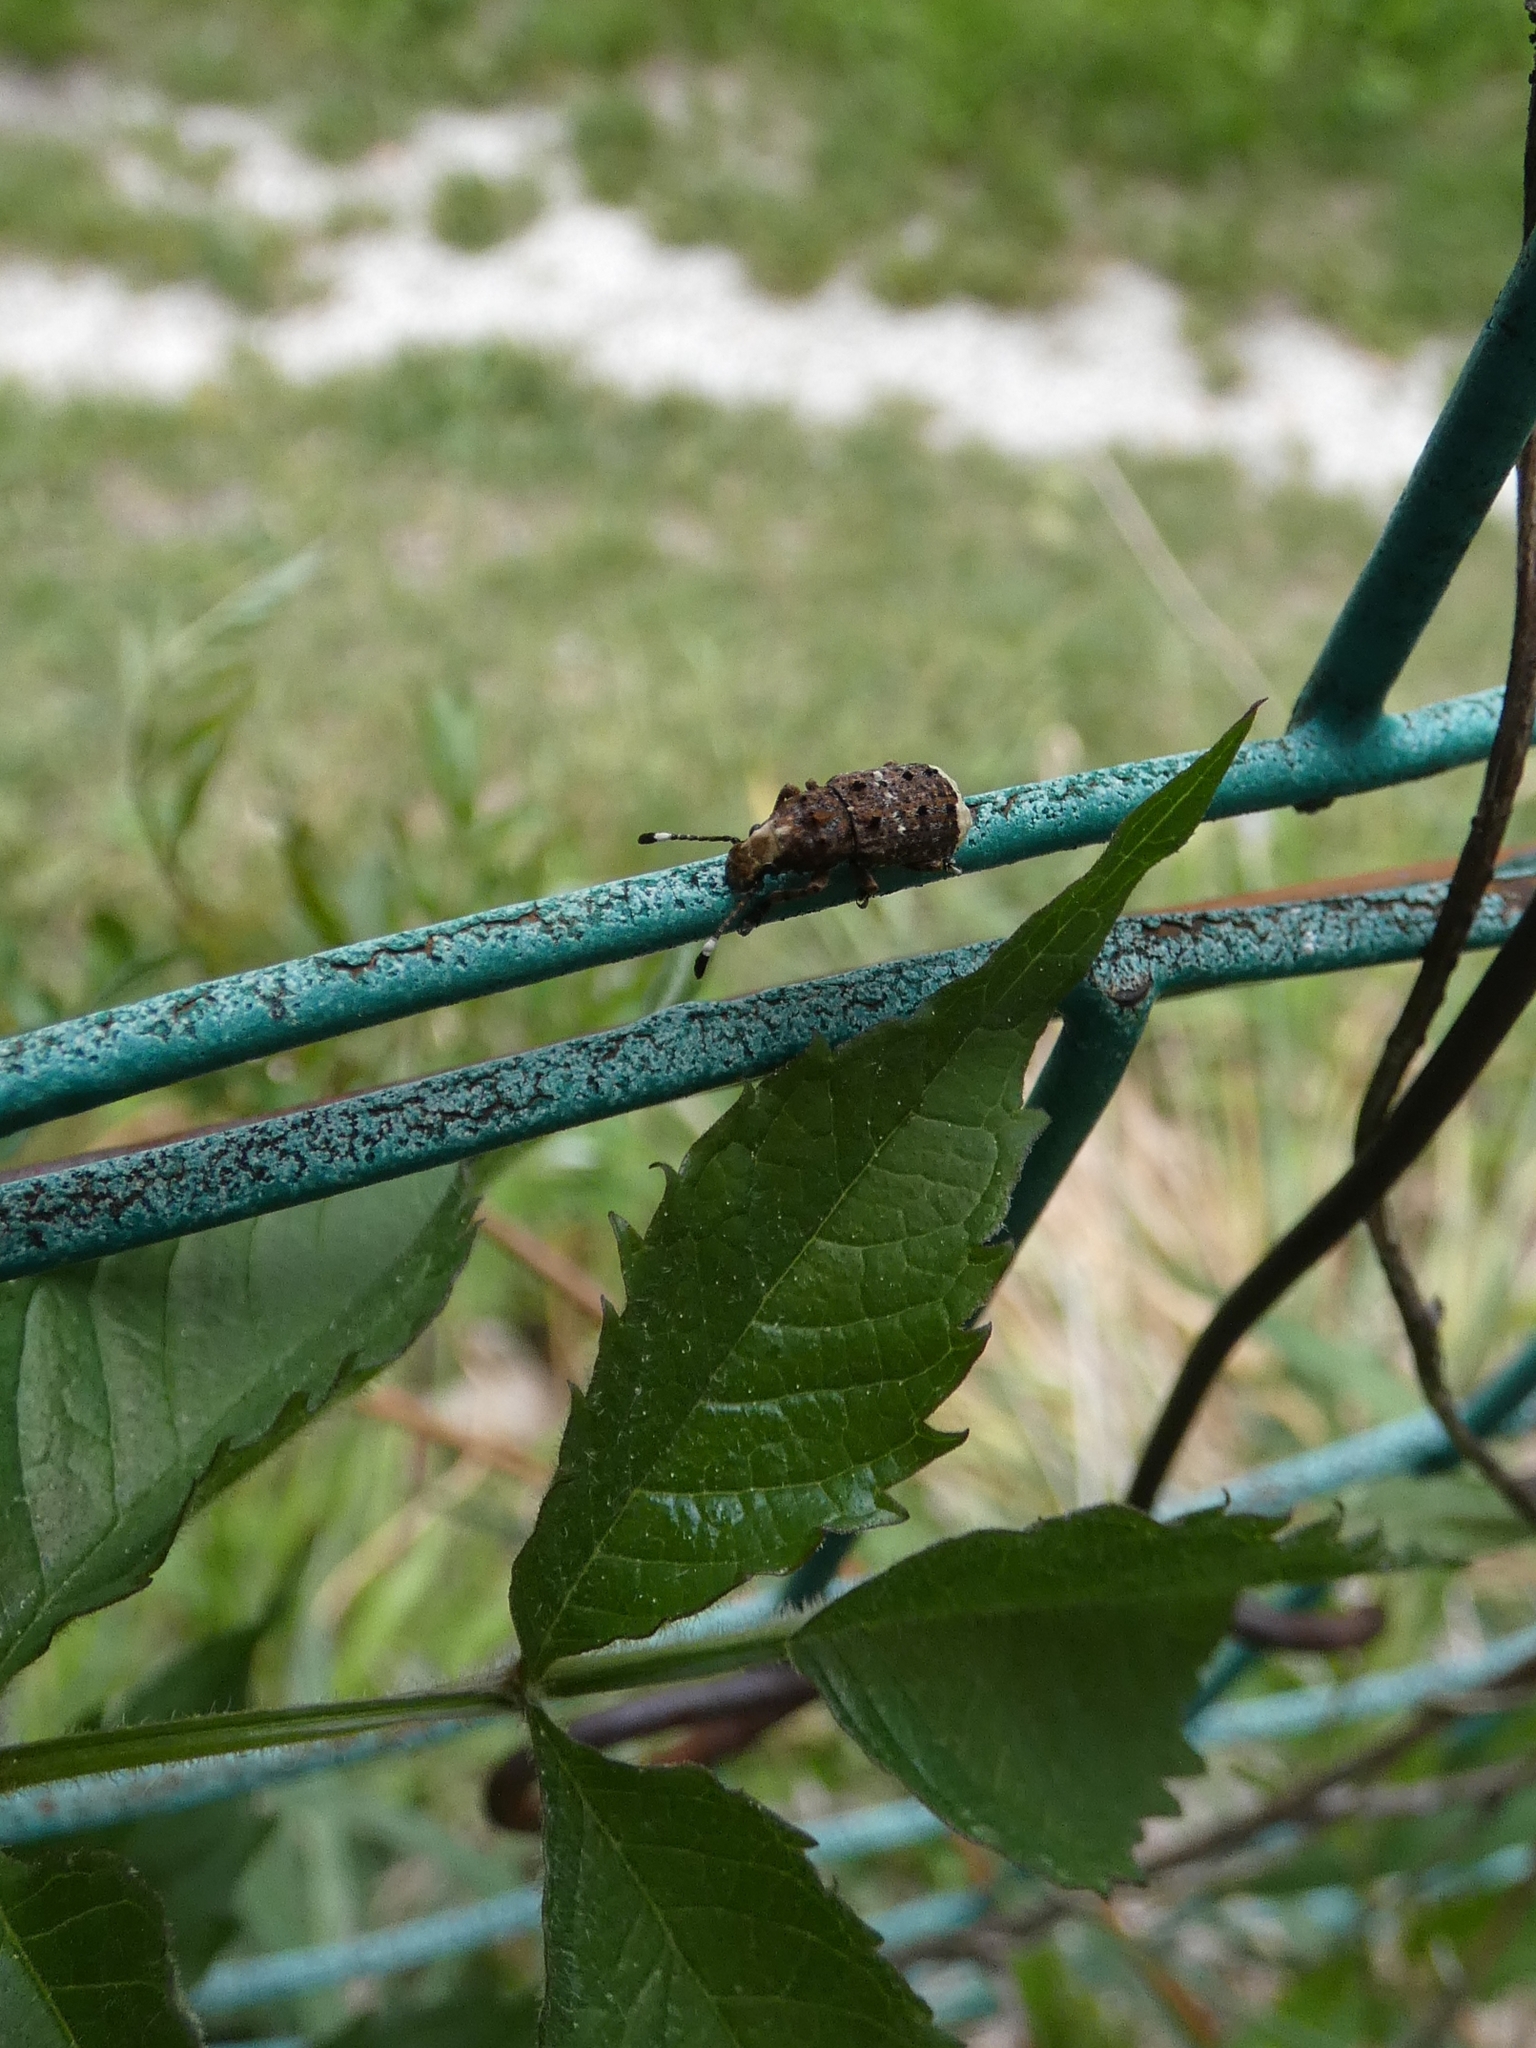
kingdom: Animalia
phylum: Arthropoda
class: Insecta
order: Coleoptera
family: Anthribidae
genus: Platystomos
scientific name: Platystomos albinus
